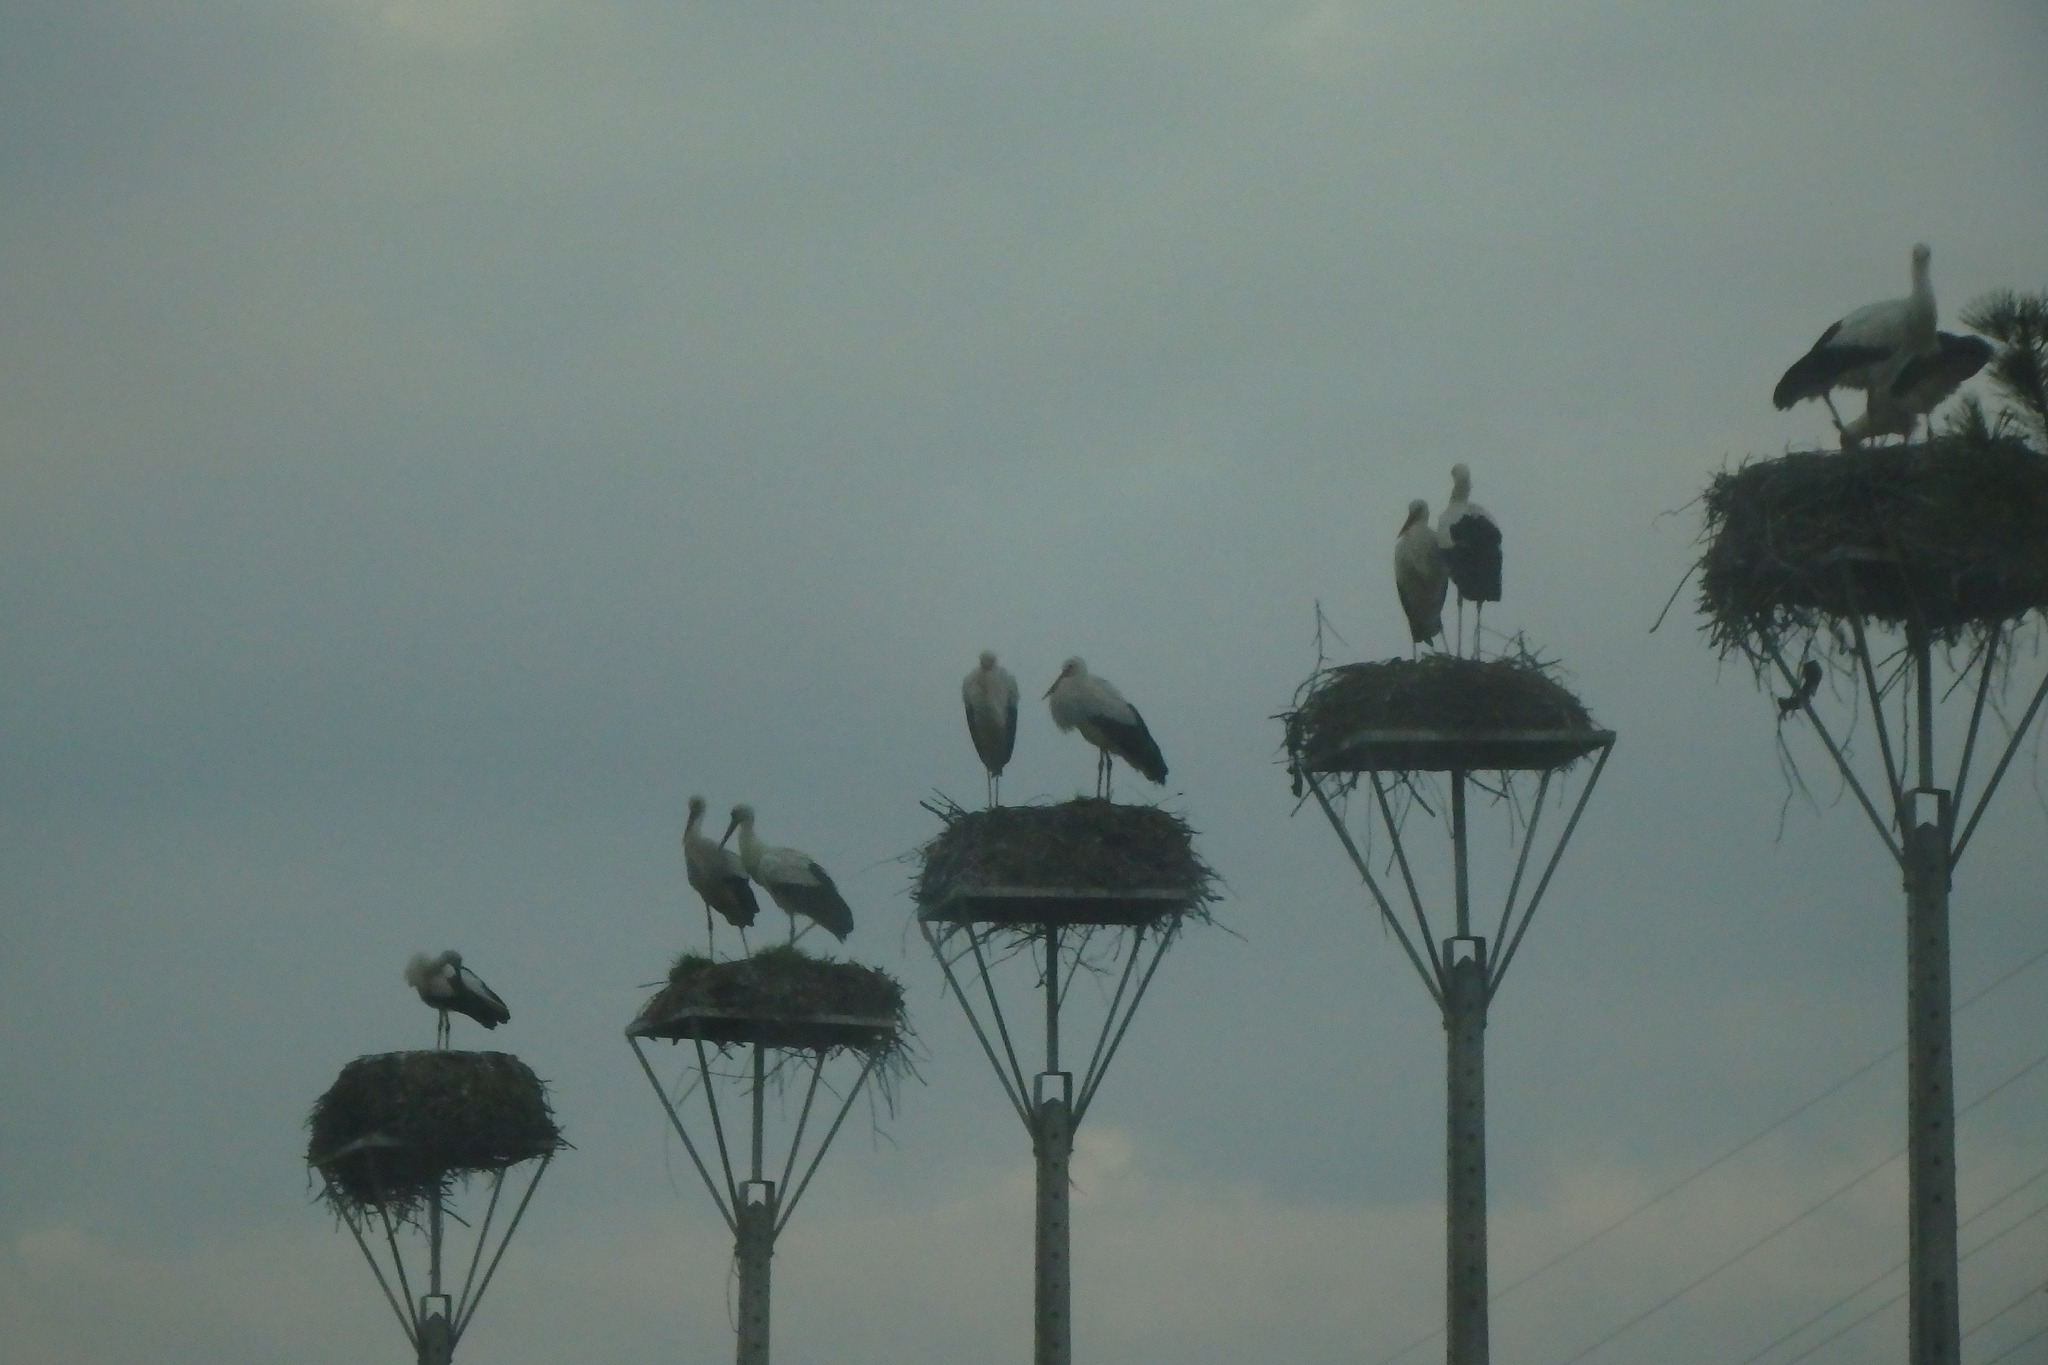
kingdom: Animalia
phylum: Chordata
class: Aves
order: Ciconiiformes
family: Ciconiidae
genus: Ciconia
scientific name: Ciconia ciconia
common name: White stork
